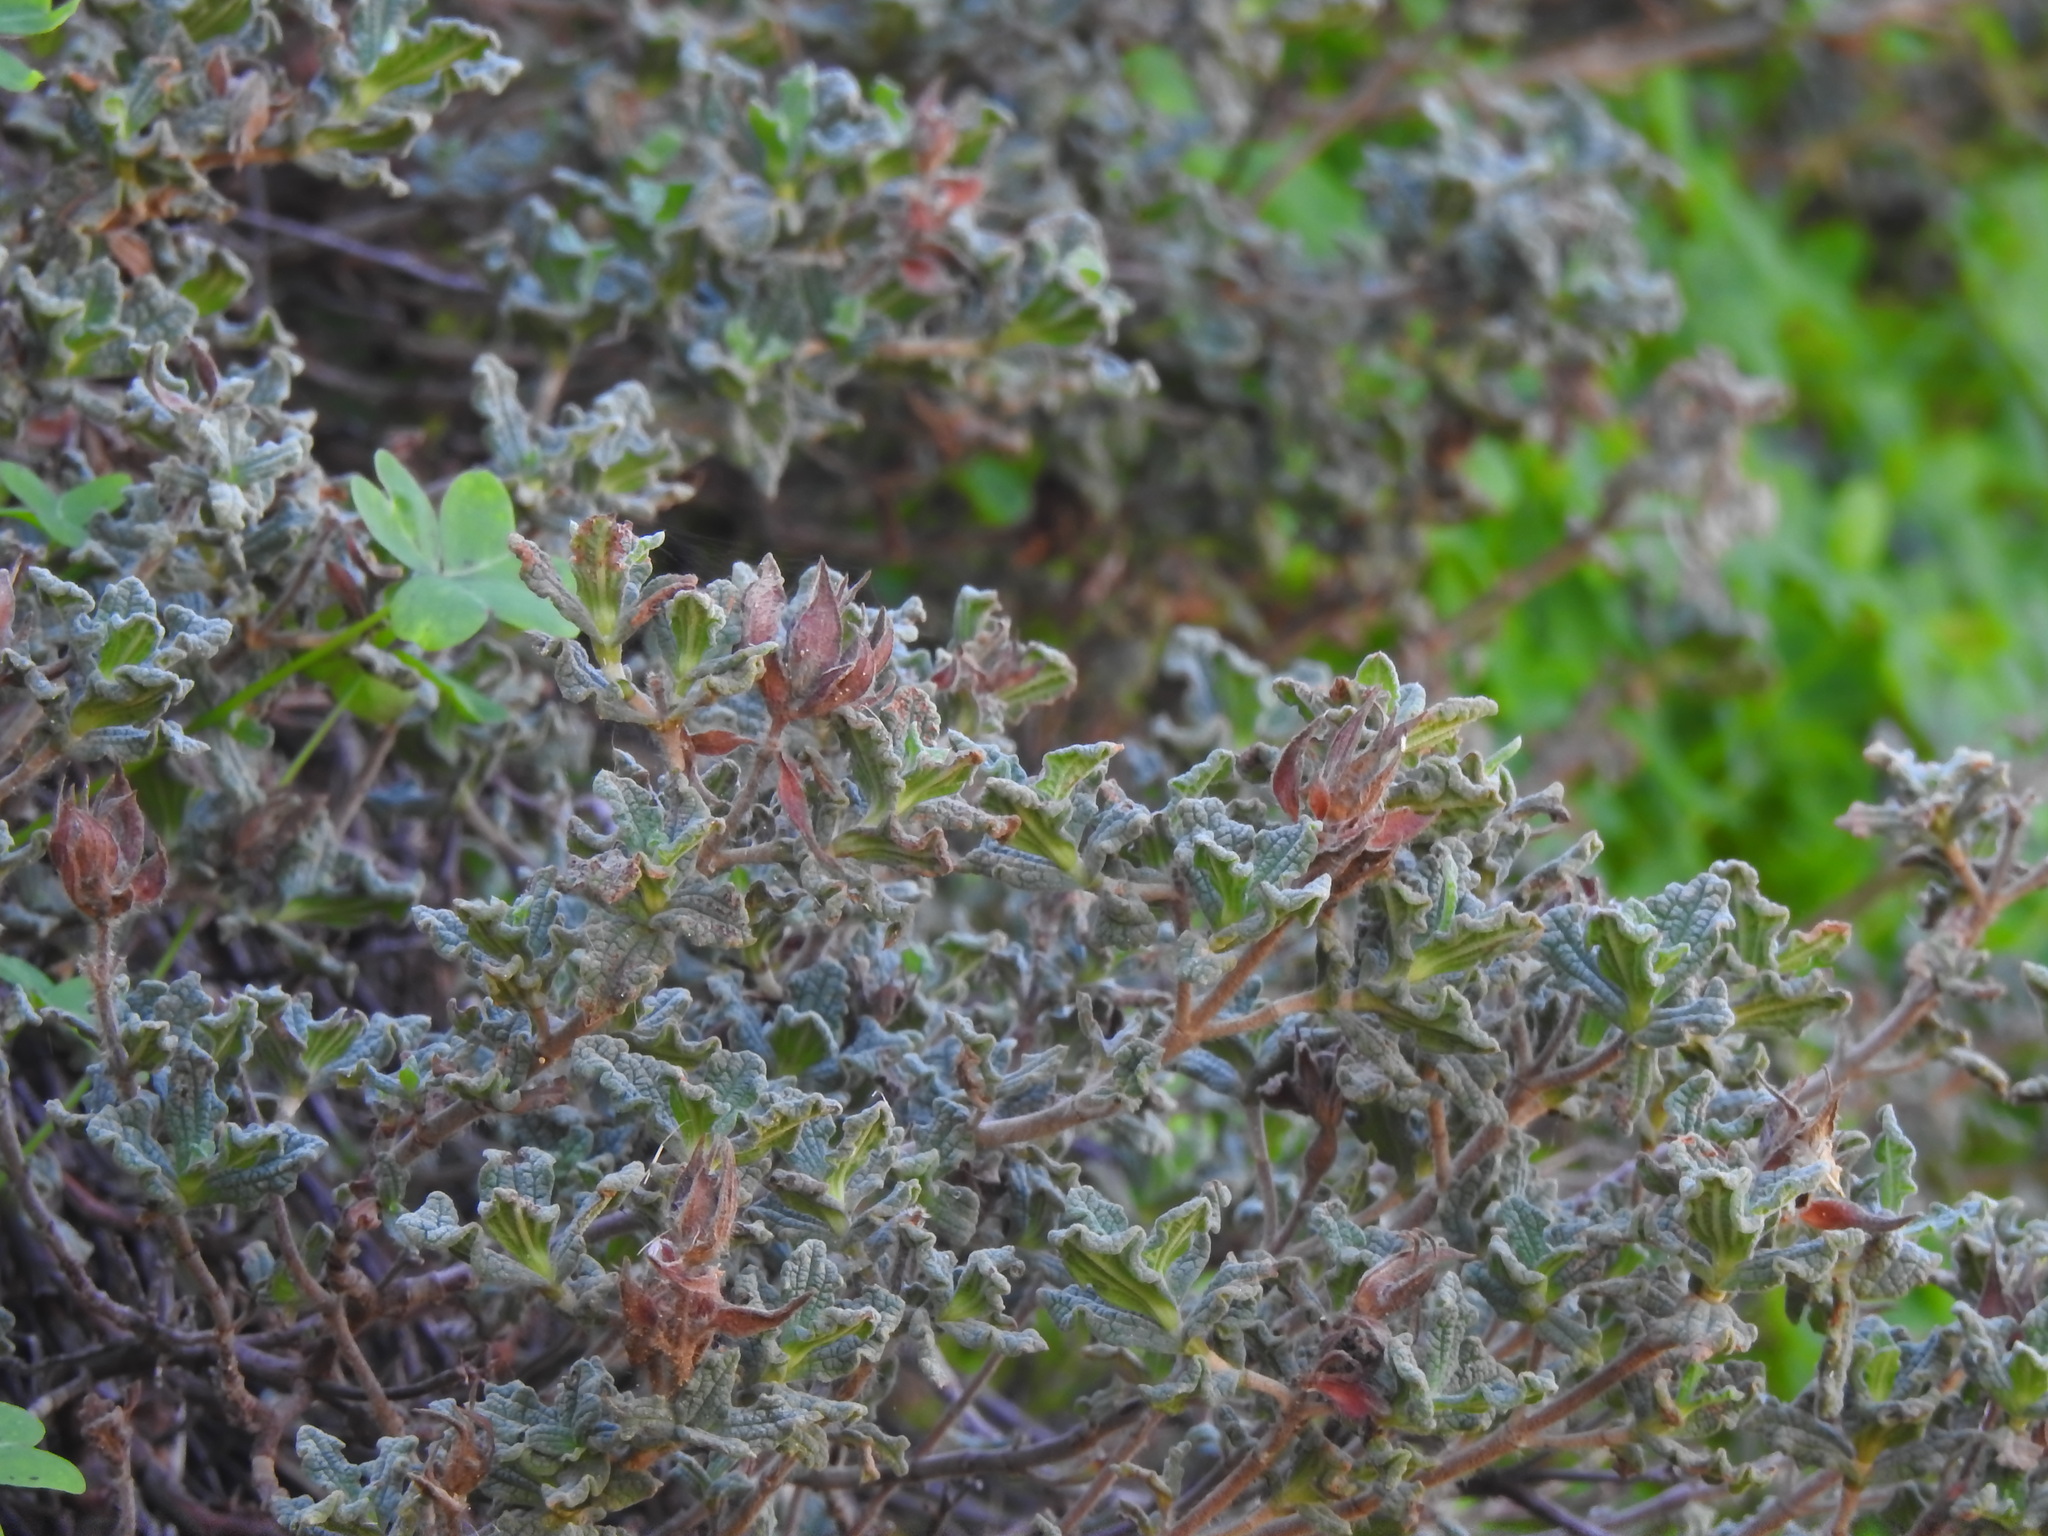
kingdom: Plantae
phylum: Tracheophyta
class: Magnoliopsida
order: Malvales
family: Cistaceae
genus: Cistus
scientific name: Cistus crispus
